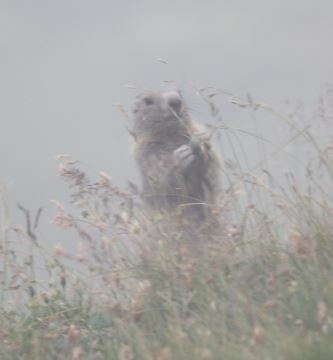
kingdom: Animalia
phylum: Chordata
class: Mammalia
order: Rodentia
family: Sciuridae
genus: Marmota
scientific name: Marmota marmota
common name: Alpine marmot
